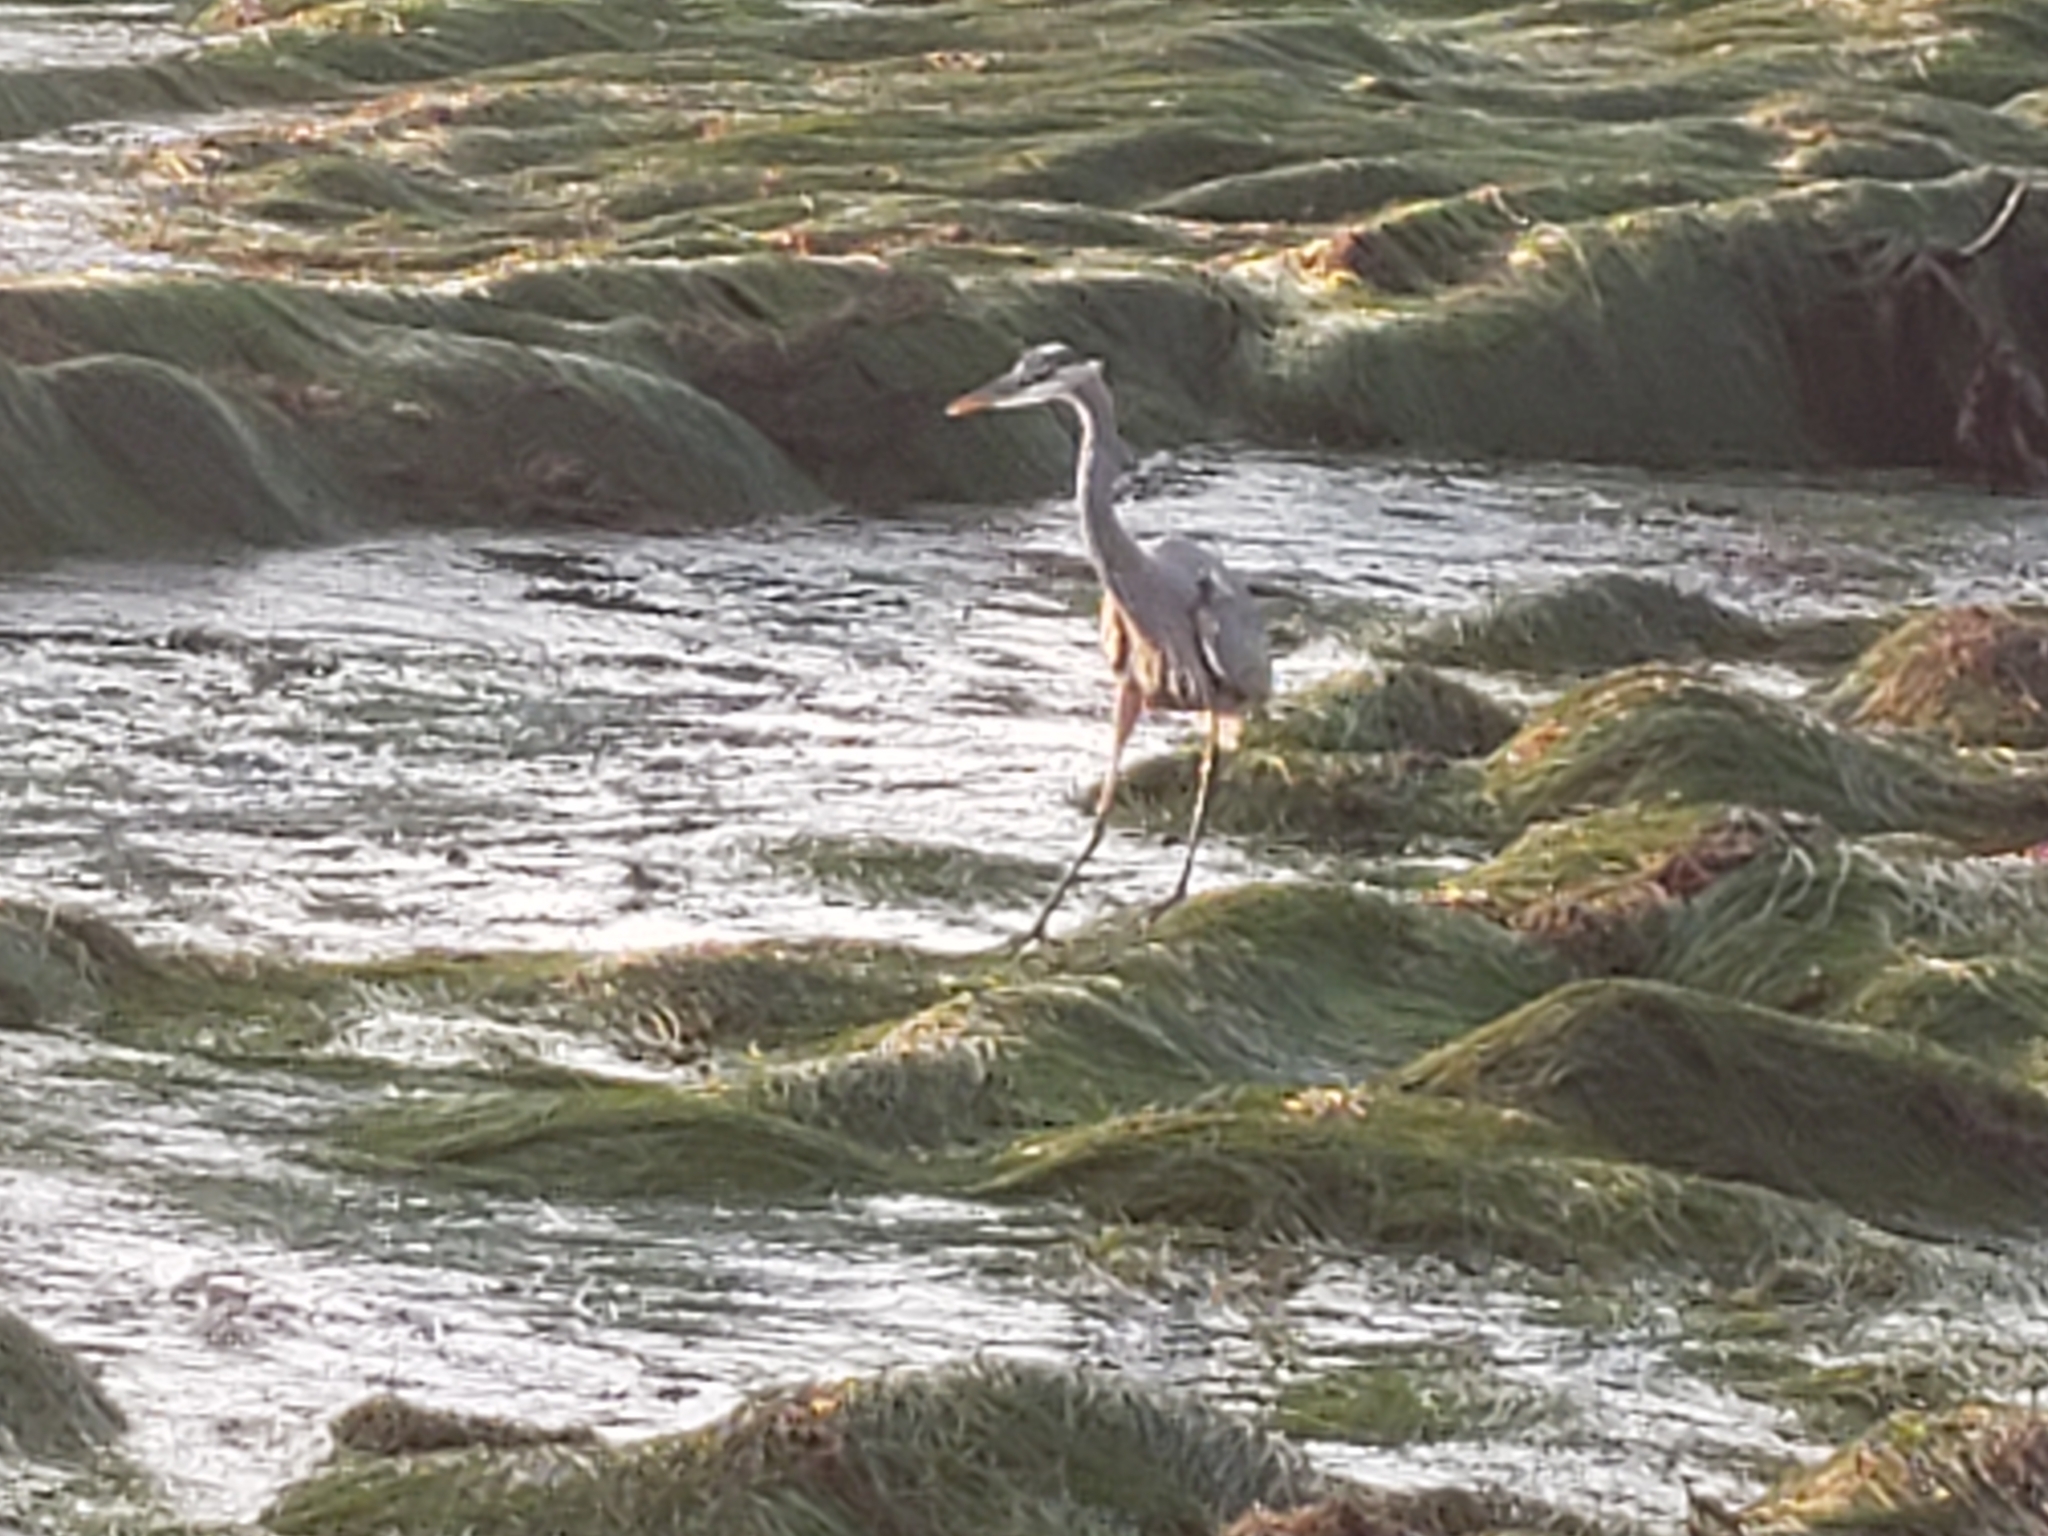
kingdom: Animalia
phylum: Chordata
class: Aves
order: Pelecaniformes
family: Ardeidae
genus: Ardea
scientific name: Ardea herodias
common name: Great blue heron
